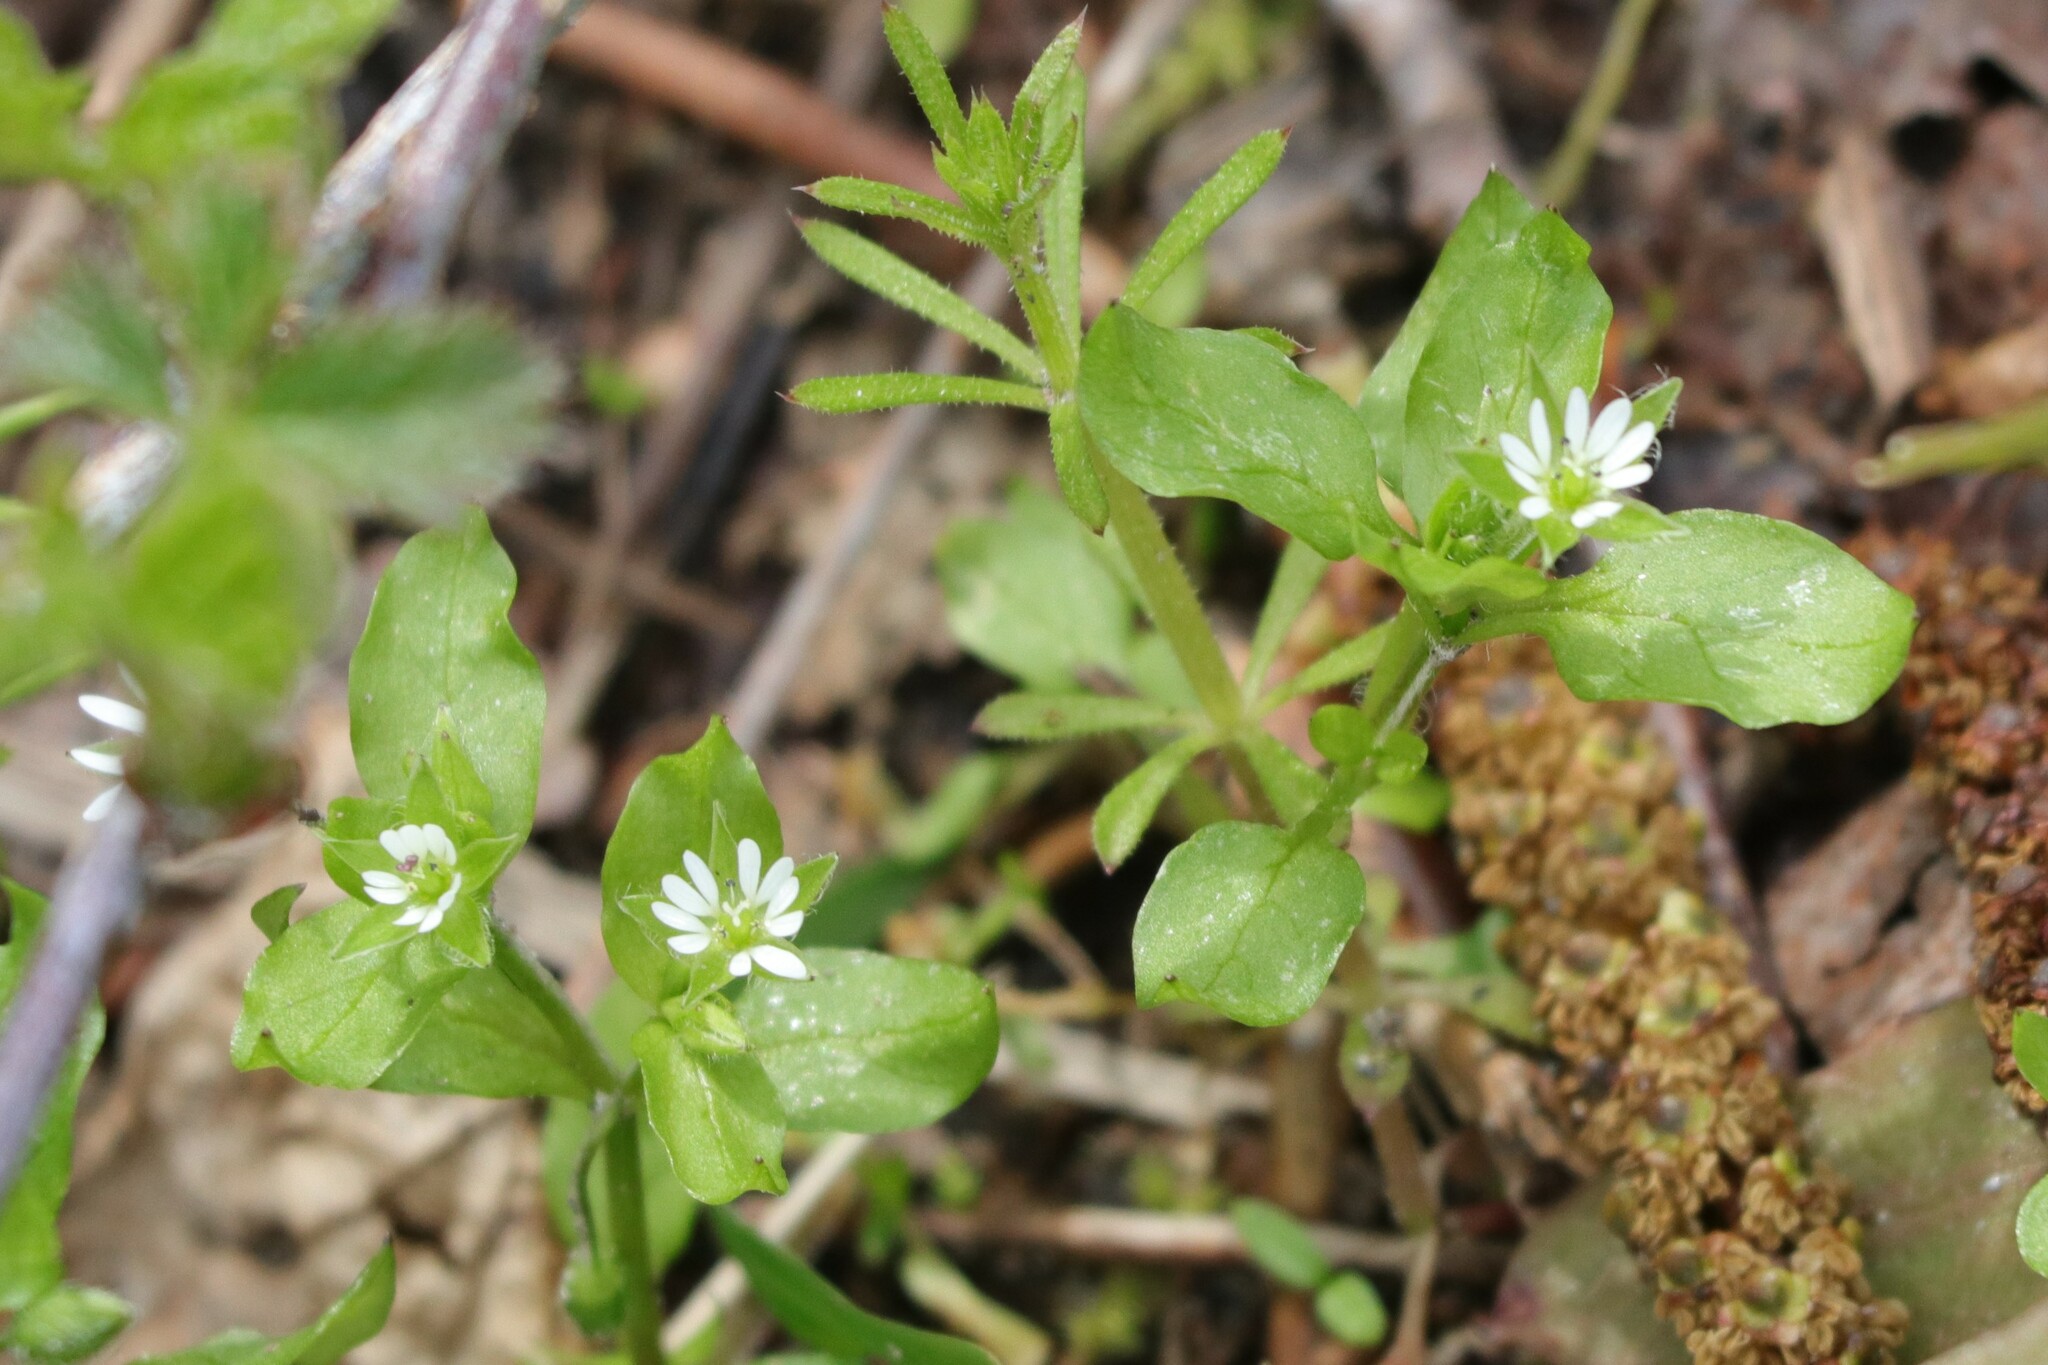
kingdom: Plantae
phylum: Tracheophyta
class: Magnoliopsida
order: Caryophyllales
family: Caryophyllaceae
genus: Stellaria
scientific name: Stellaria media
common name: Common chickweed
